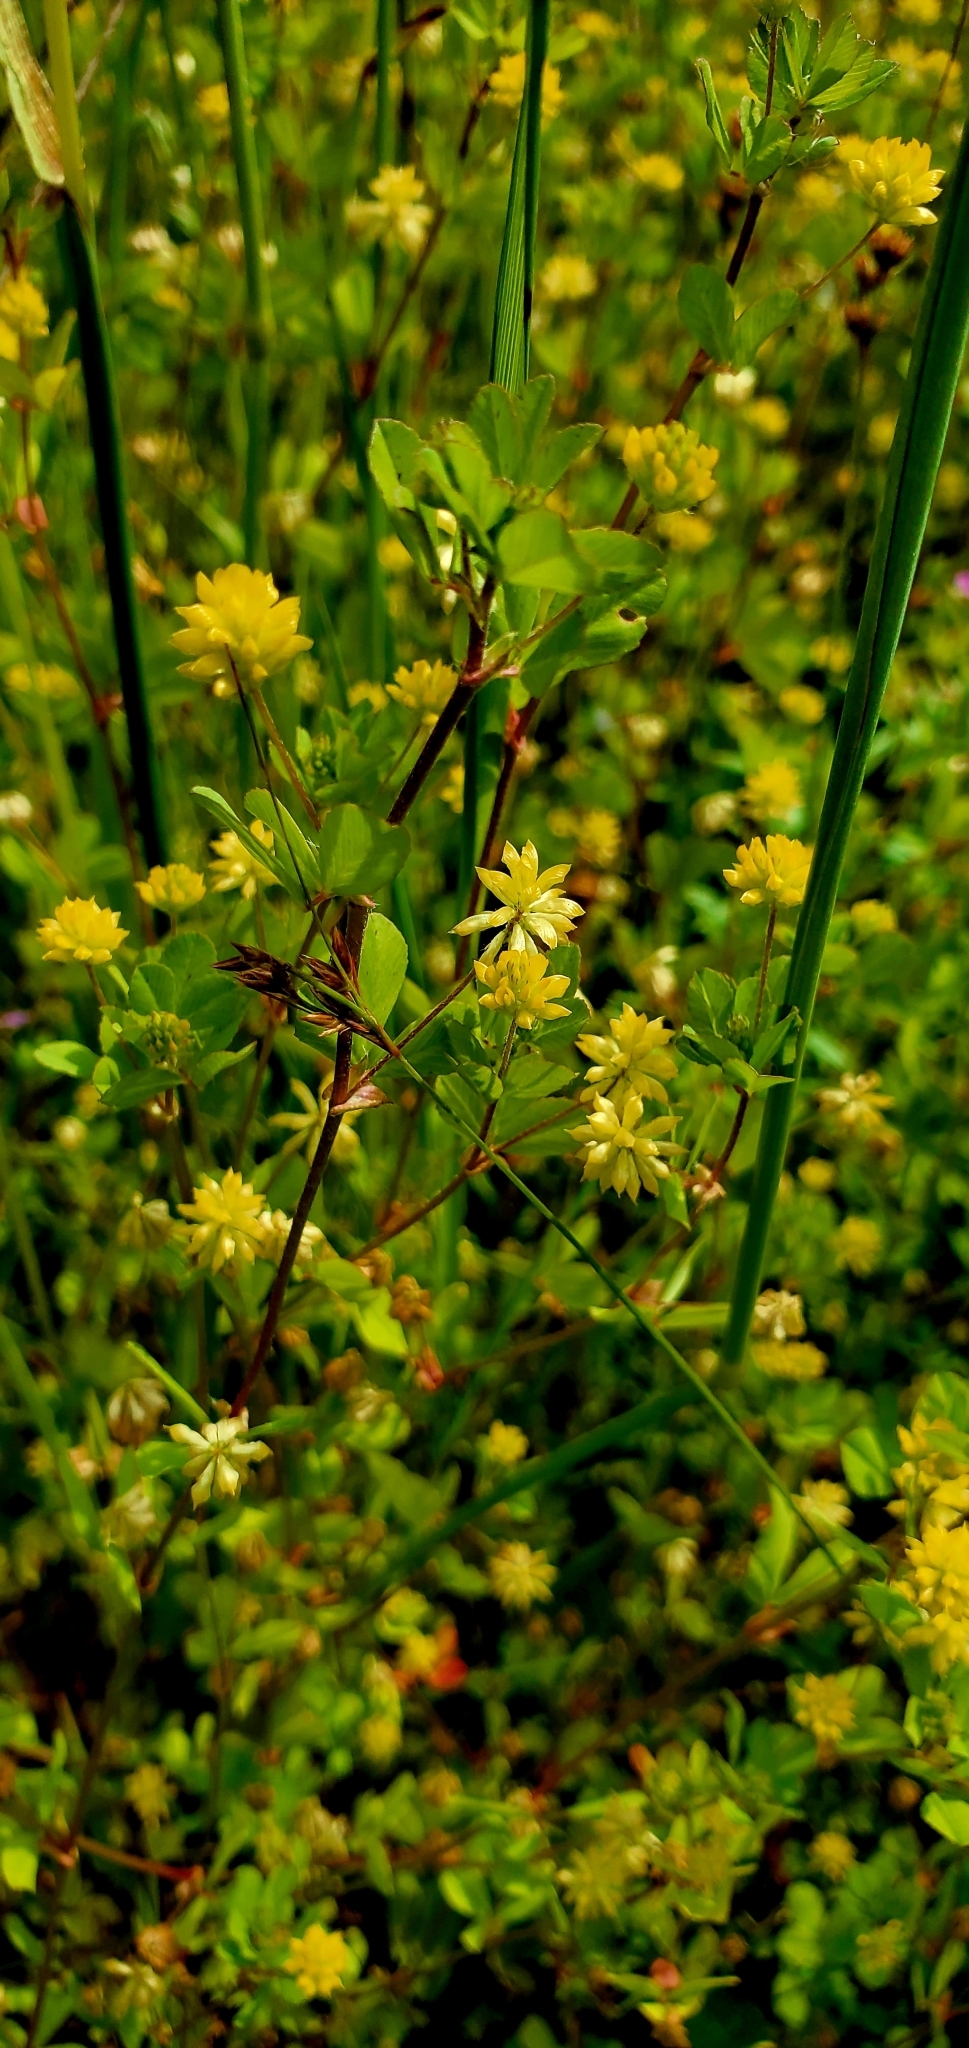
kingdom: Plantae
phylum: Tracheophyta
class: Magnoliopsida
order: Fabales
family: Fabaceae
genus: Trifolium
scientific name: Trifolium dubium
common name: Suckling clover
